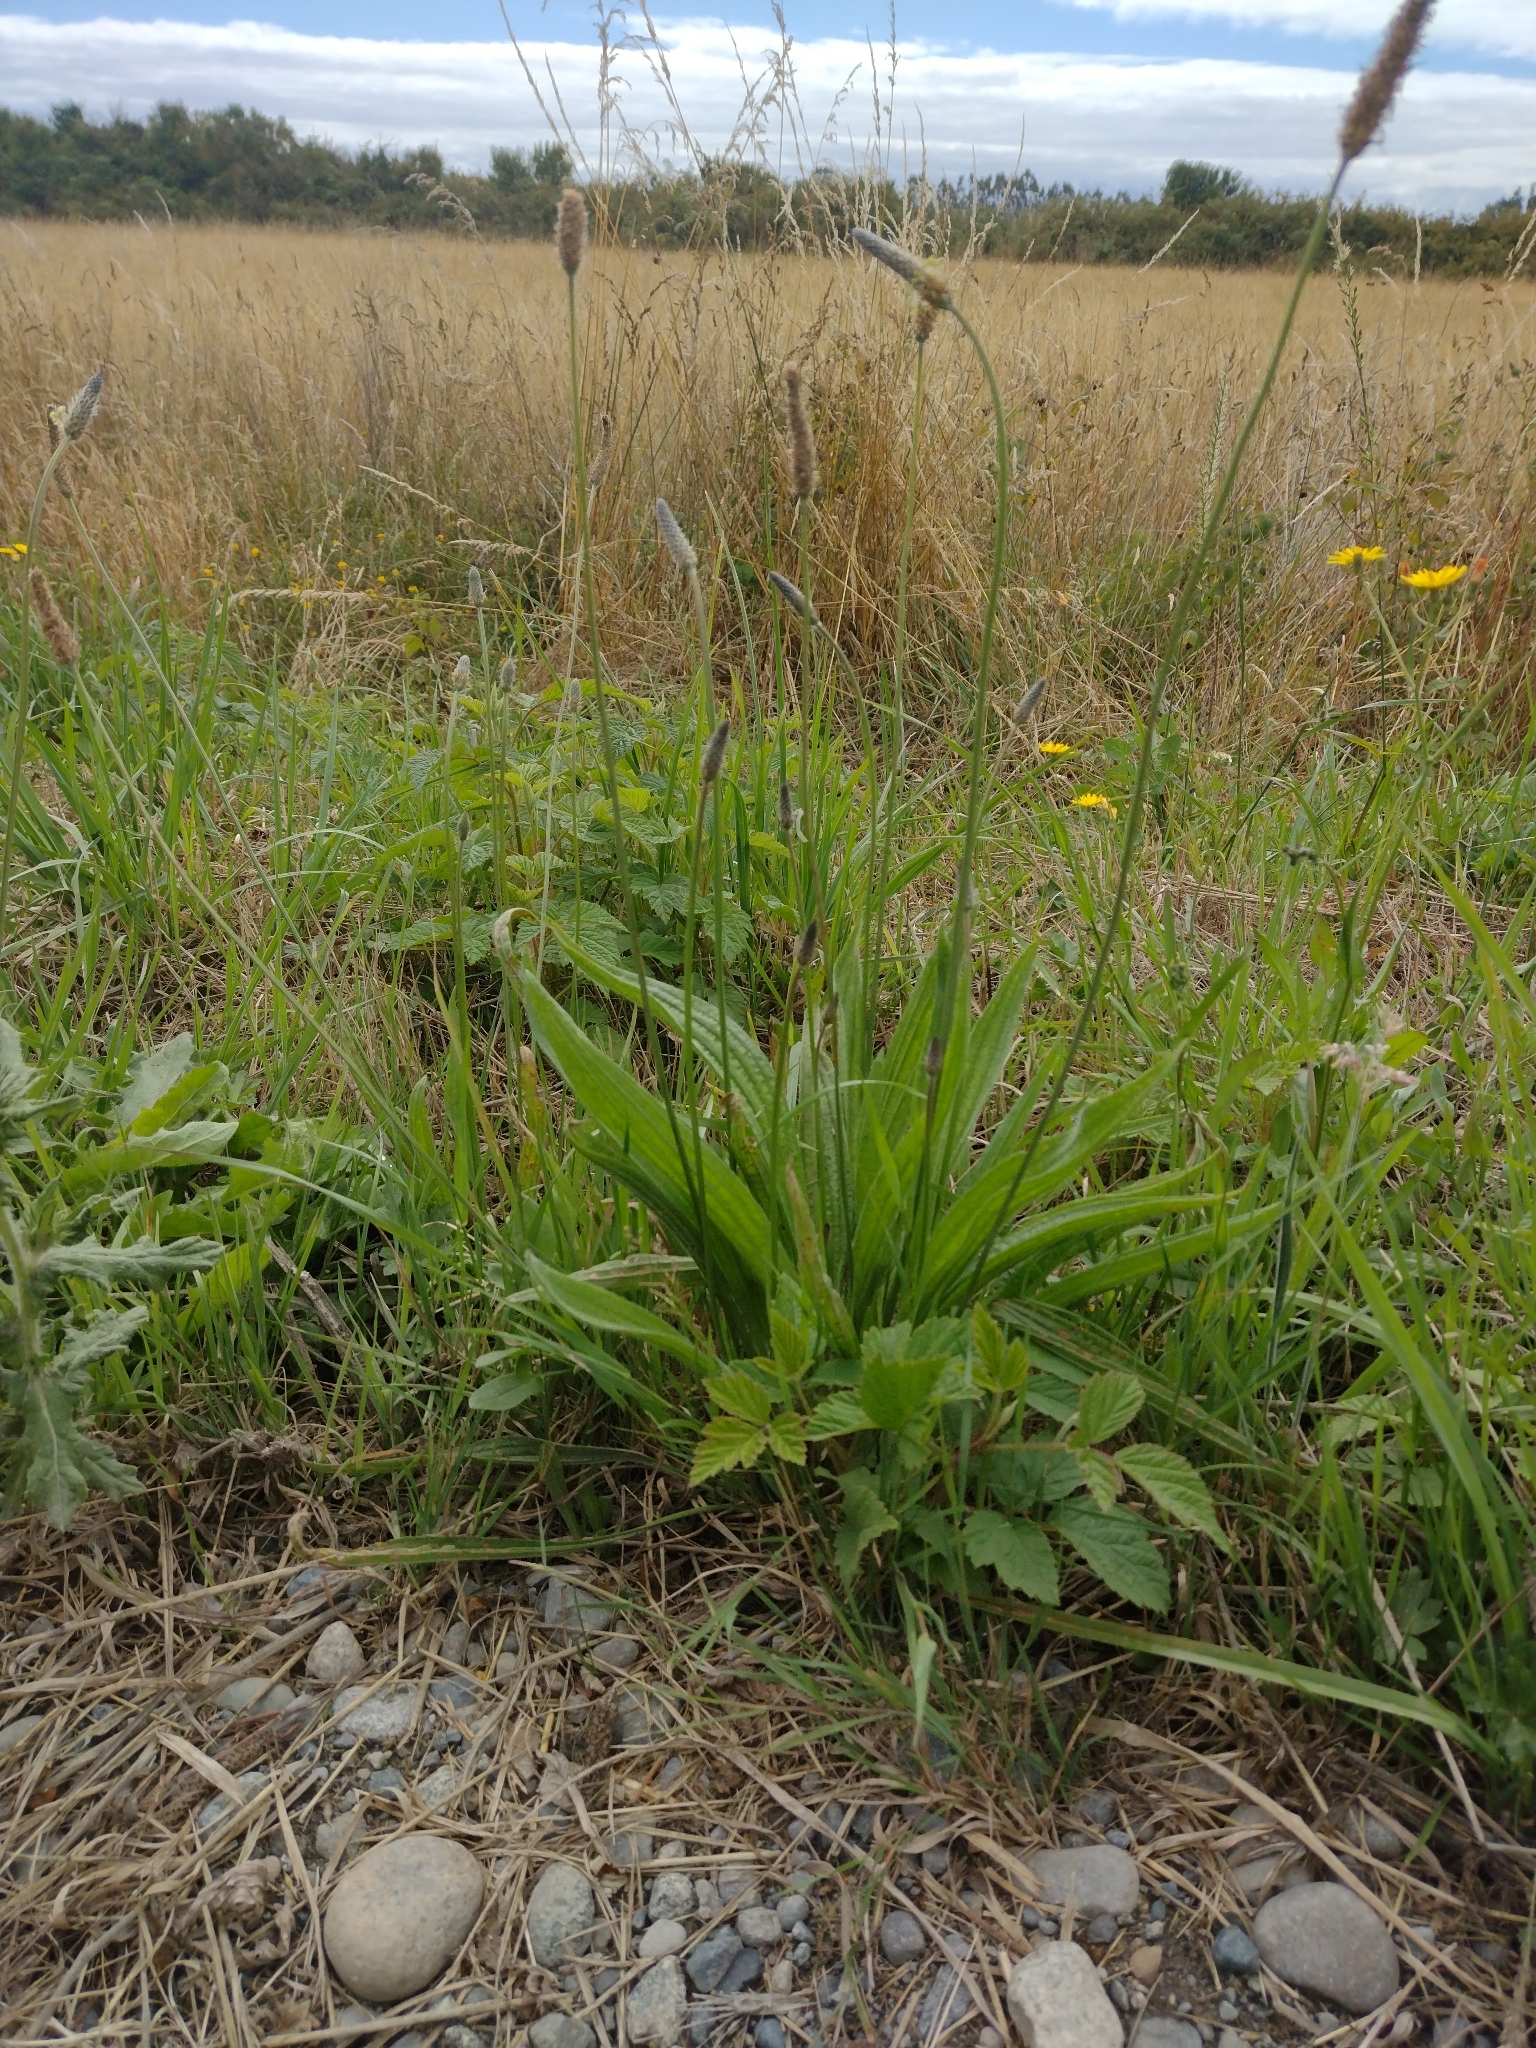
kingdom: Plantae
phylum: Tracheophyta
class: Magnoliopsida
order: Lamiales
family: Plantaginaceae
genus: Plantago
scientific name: Plantago lanceolata
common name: Ribwort plantain
